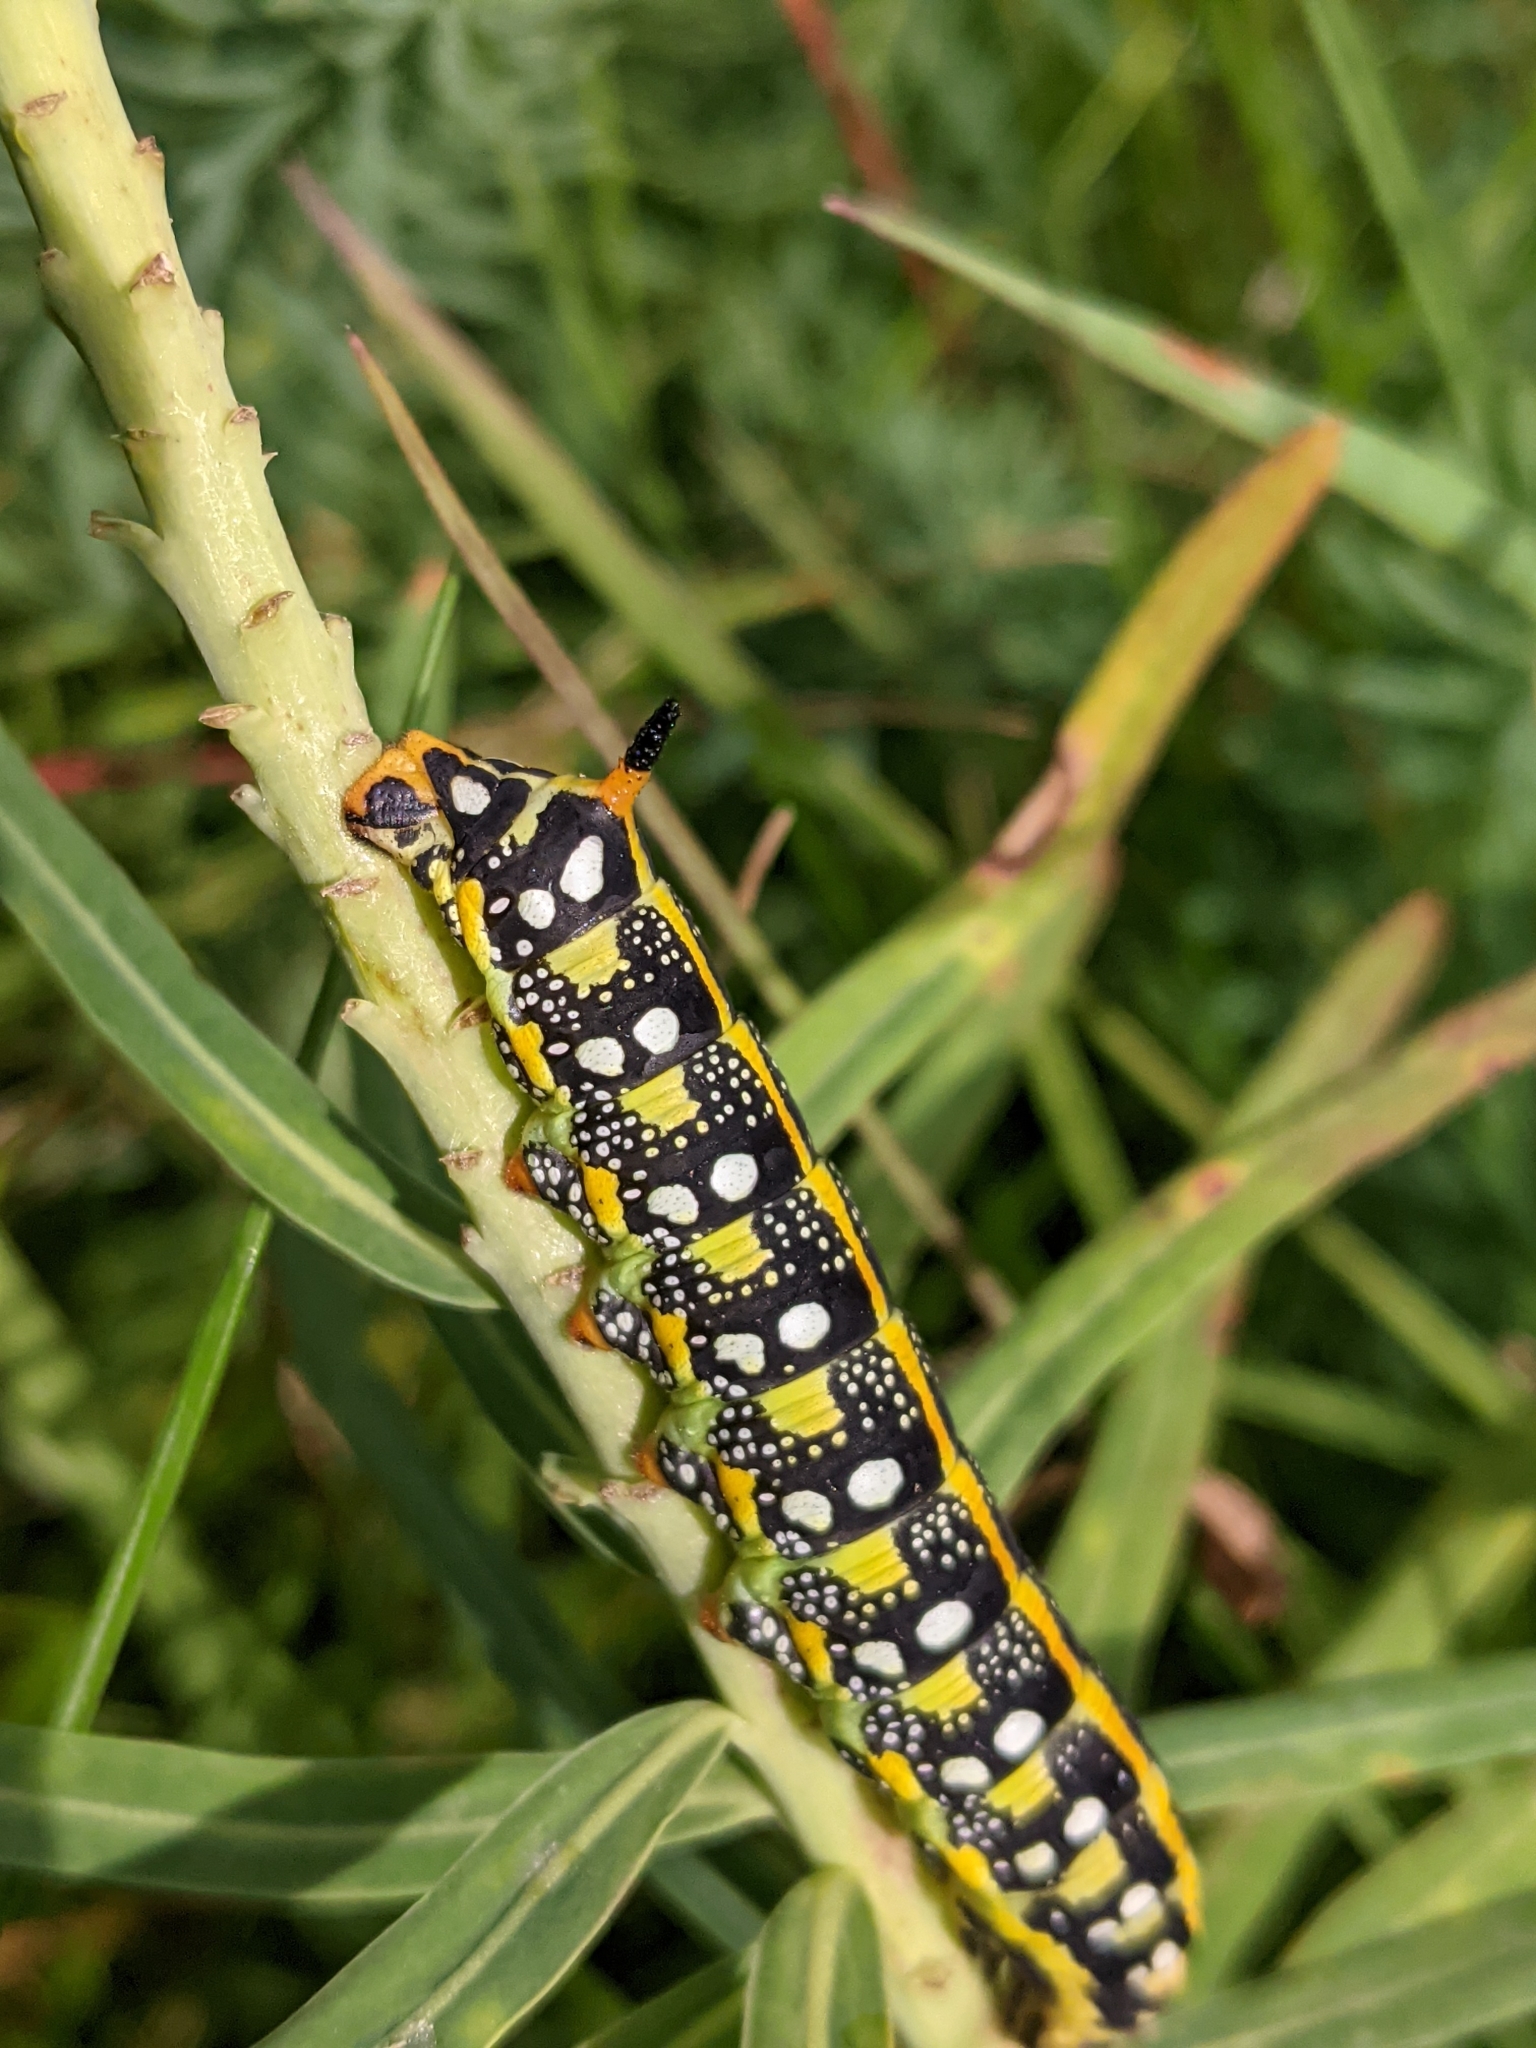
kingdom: Animalia
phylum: Arthropoda
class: Insecta
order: Lepidoptera
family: Sphingidae
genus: Hyles
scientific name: Hyles euphorbiae
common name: Spurge hawk-moth
